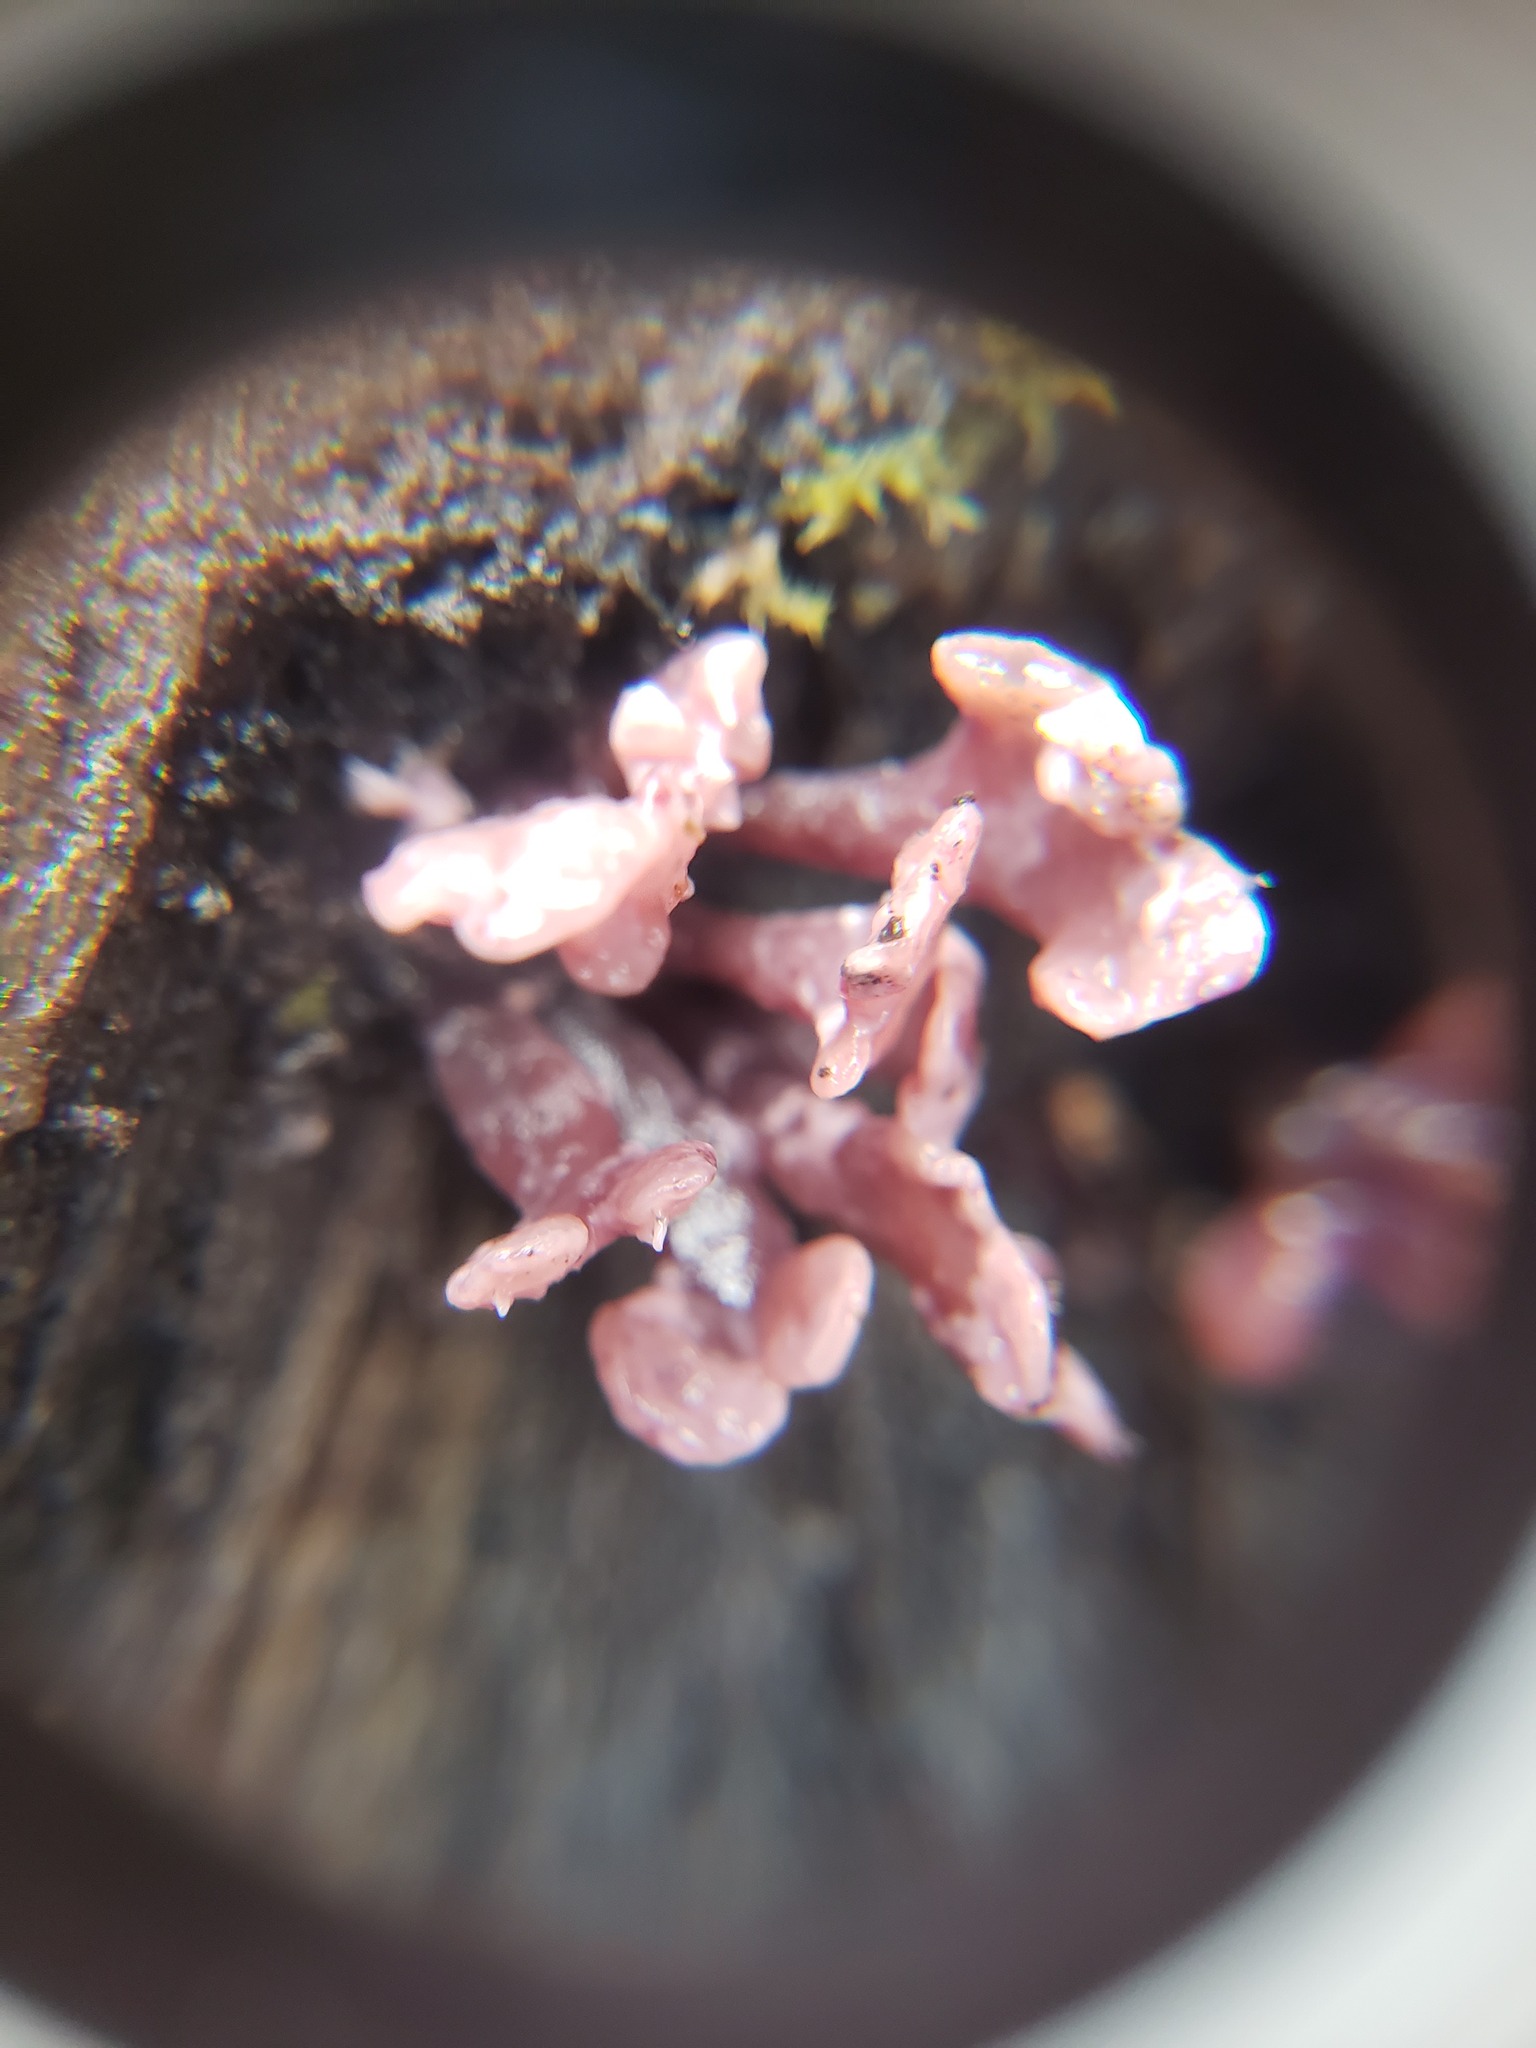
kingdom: Fungi
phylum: Ascomycota
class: Leotiomycetes
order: Helotiales
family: Gelatinodiscaceae
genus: Ascocoryne
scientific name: Ascocoryne sarcoides
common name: Purple jellydisc
